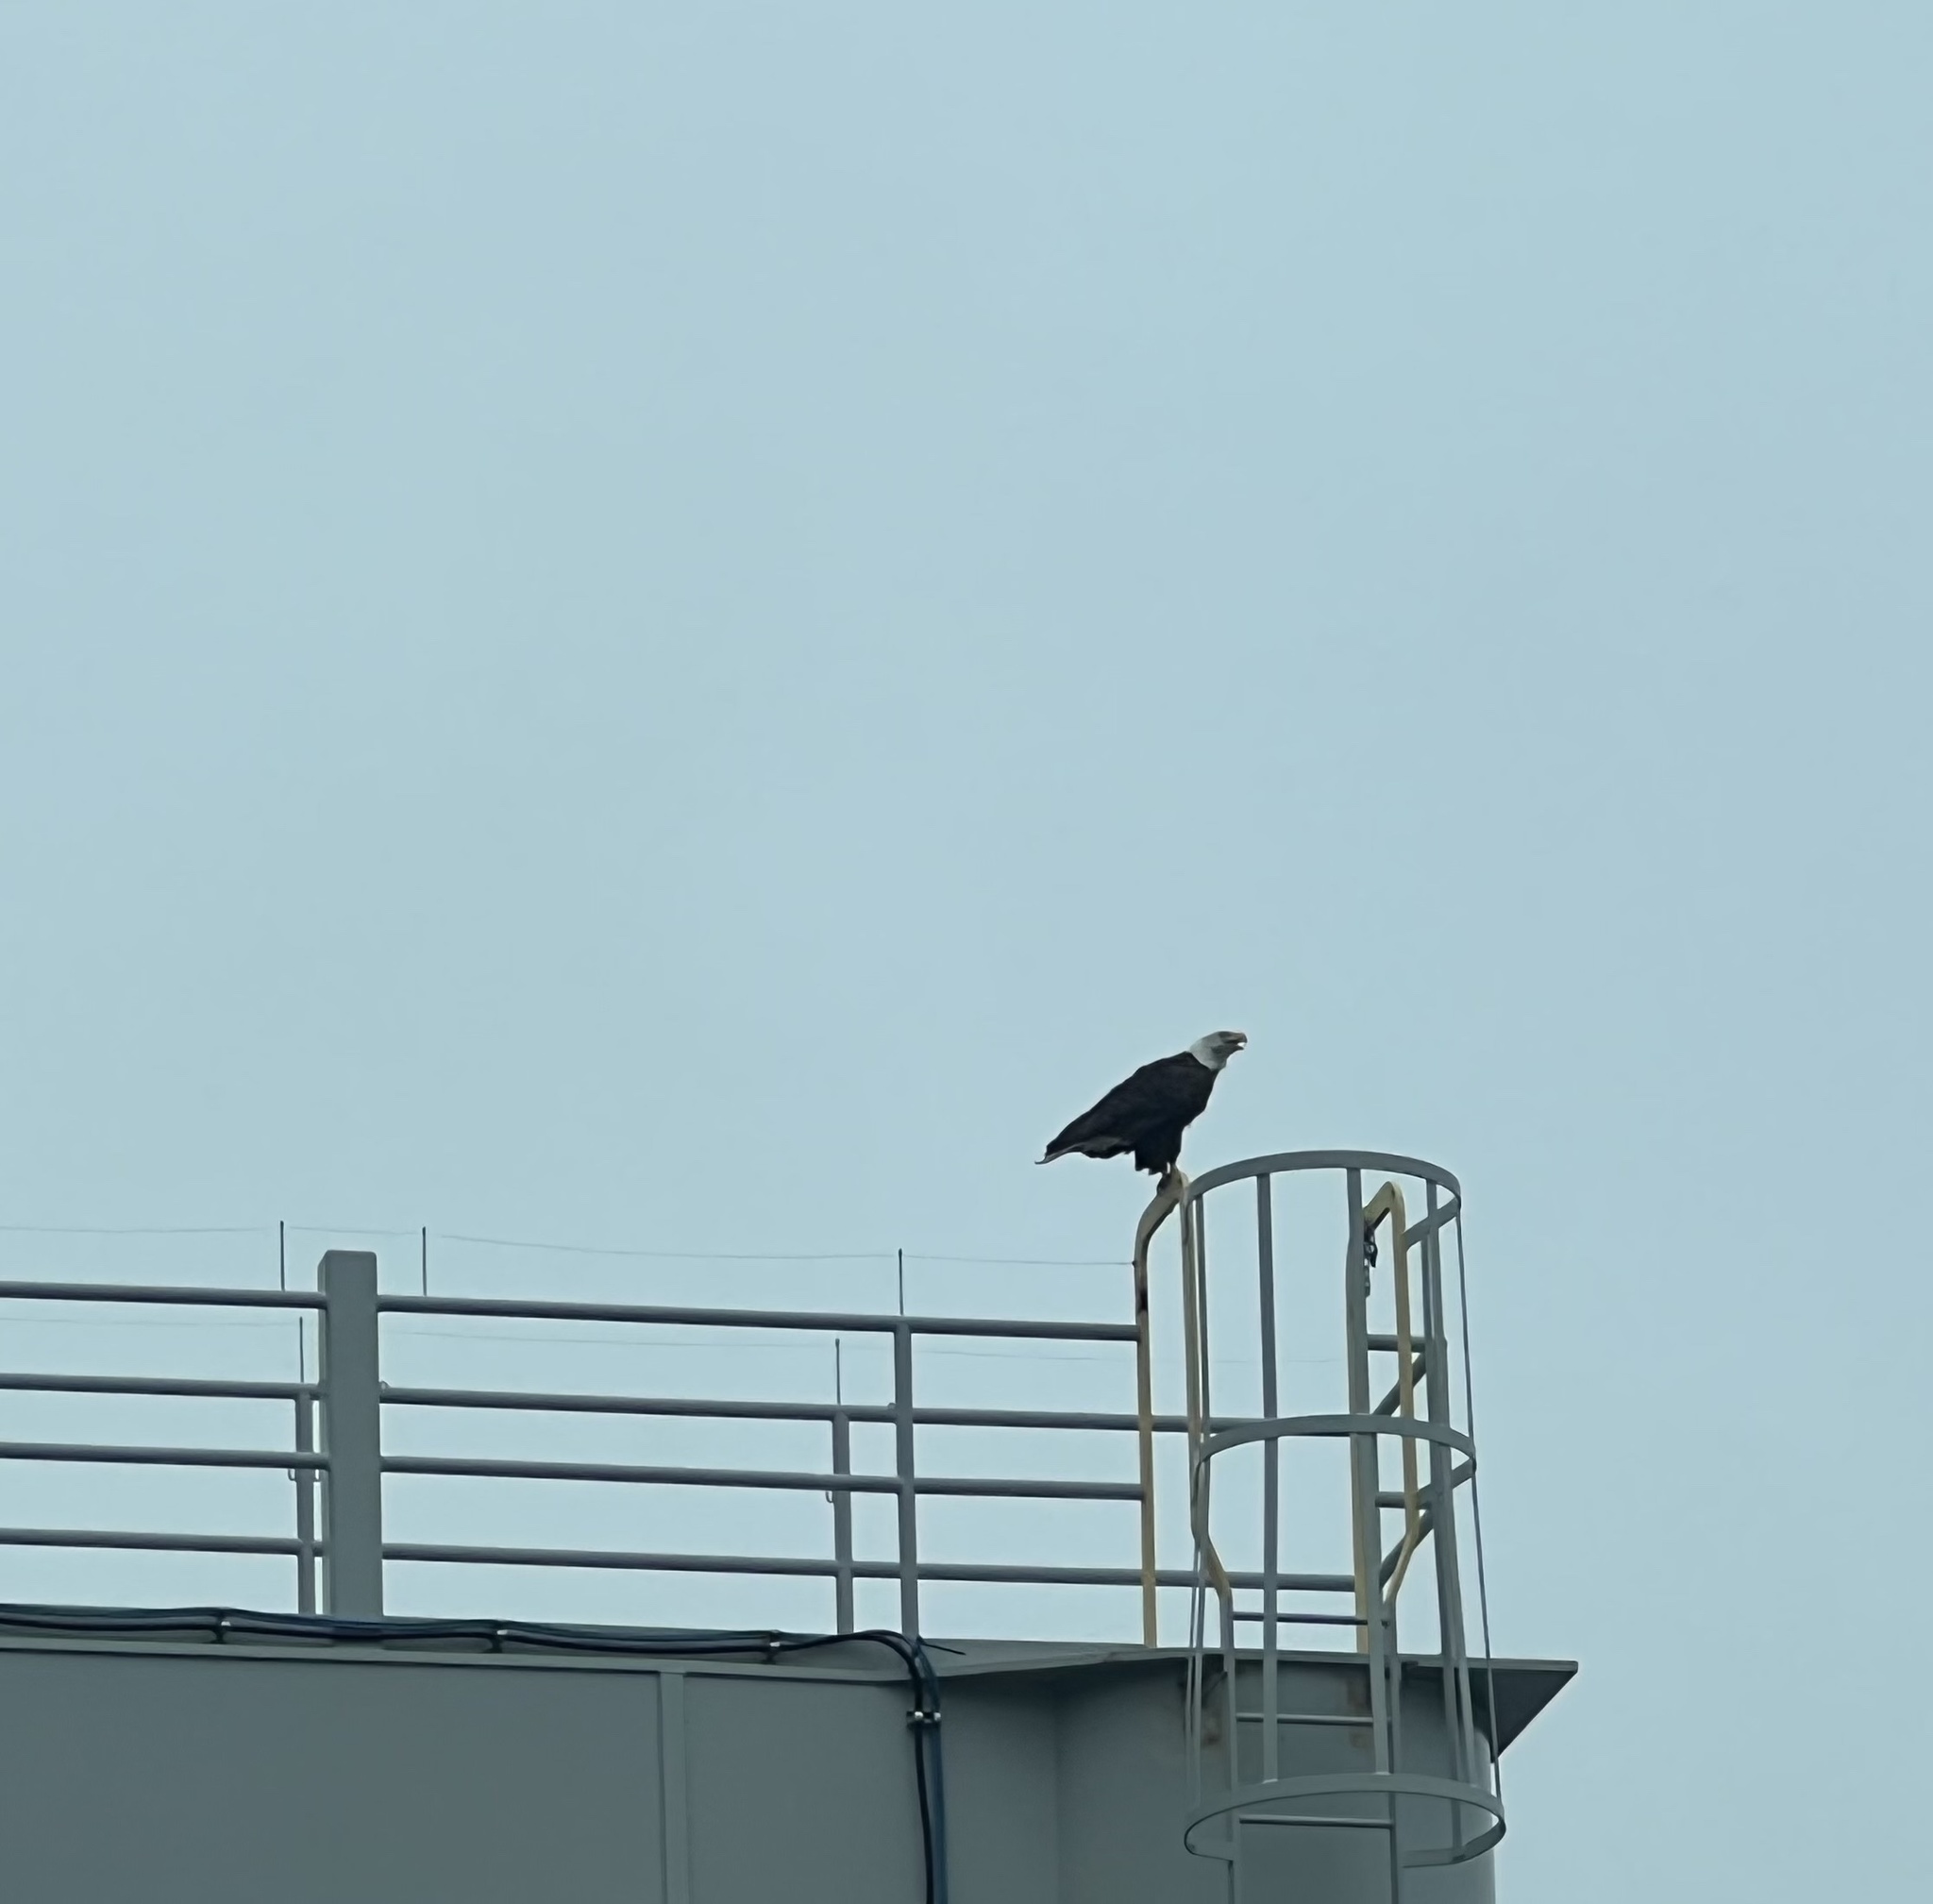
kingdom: Animalia
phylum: Chordata
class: Aves
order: Accipitriformes
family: Accipitridae
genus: Haliaeetus
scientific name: Haliaeetus leucocephalus
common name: Bald eagle
